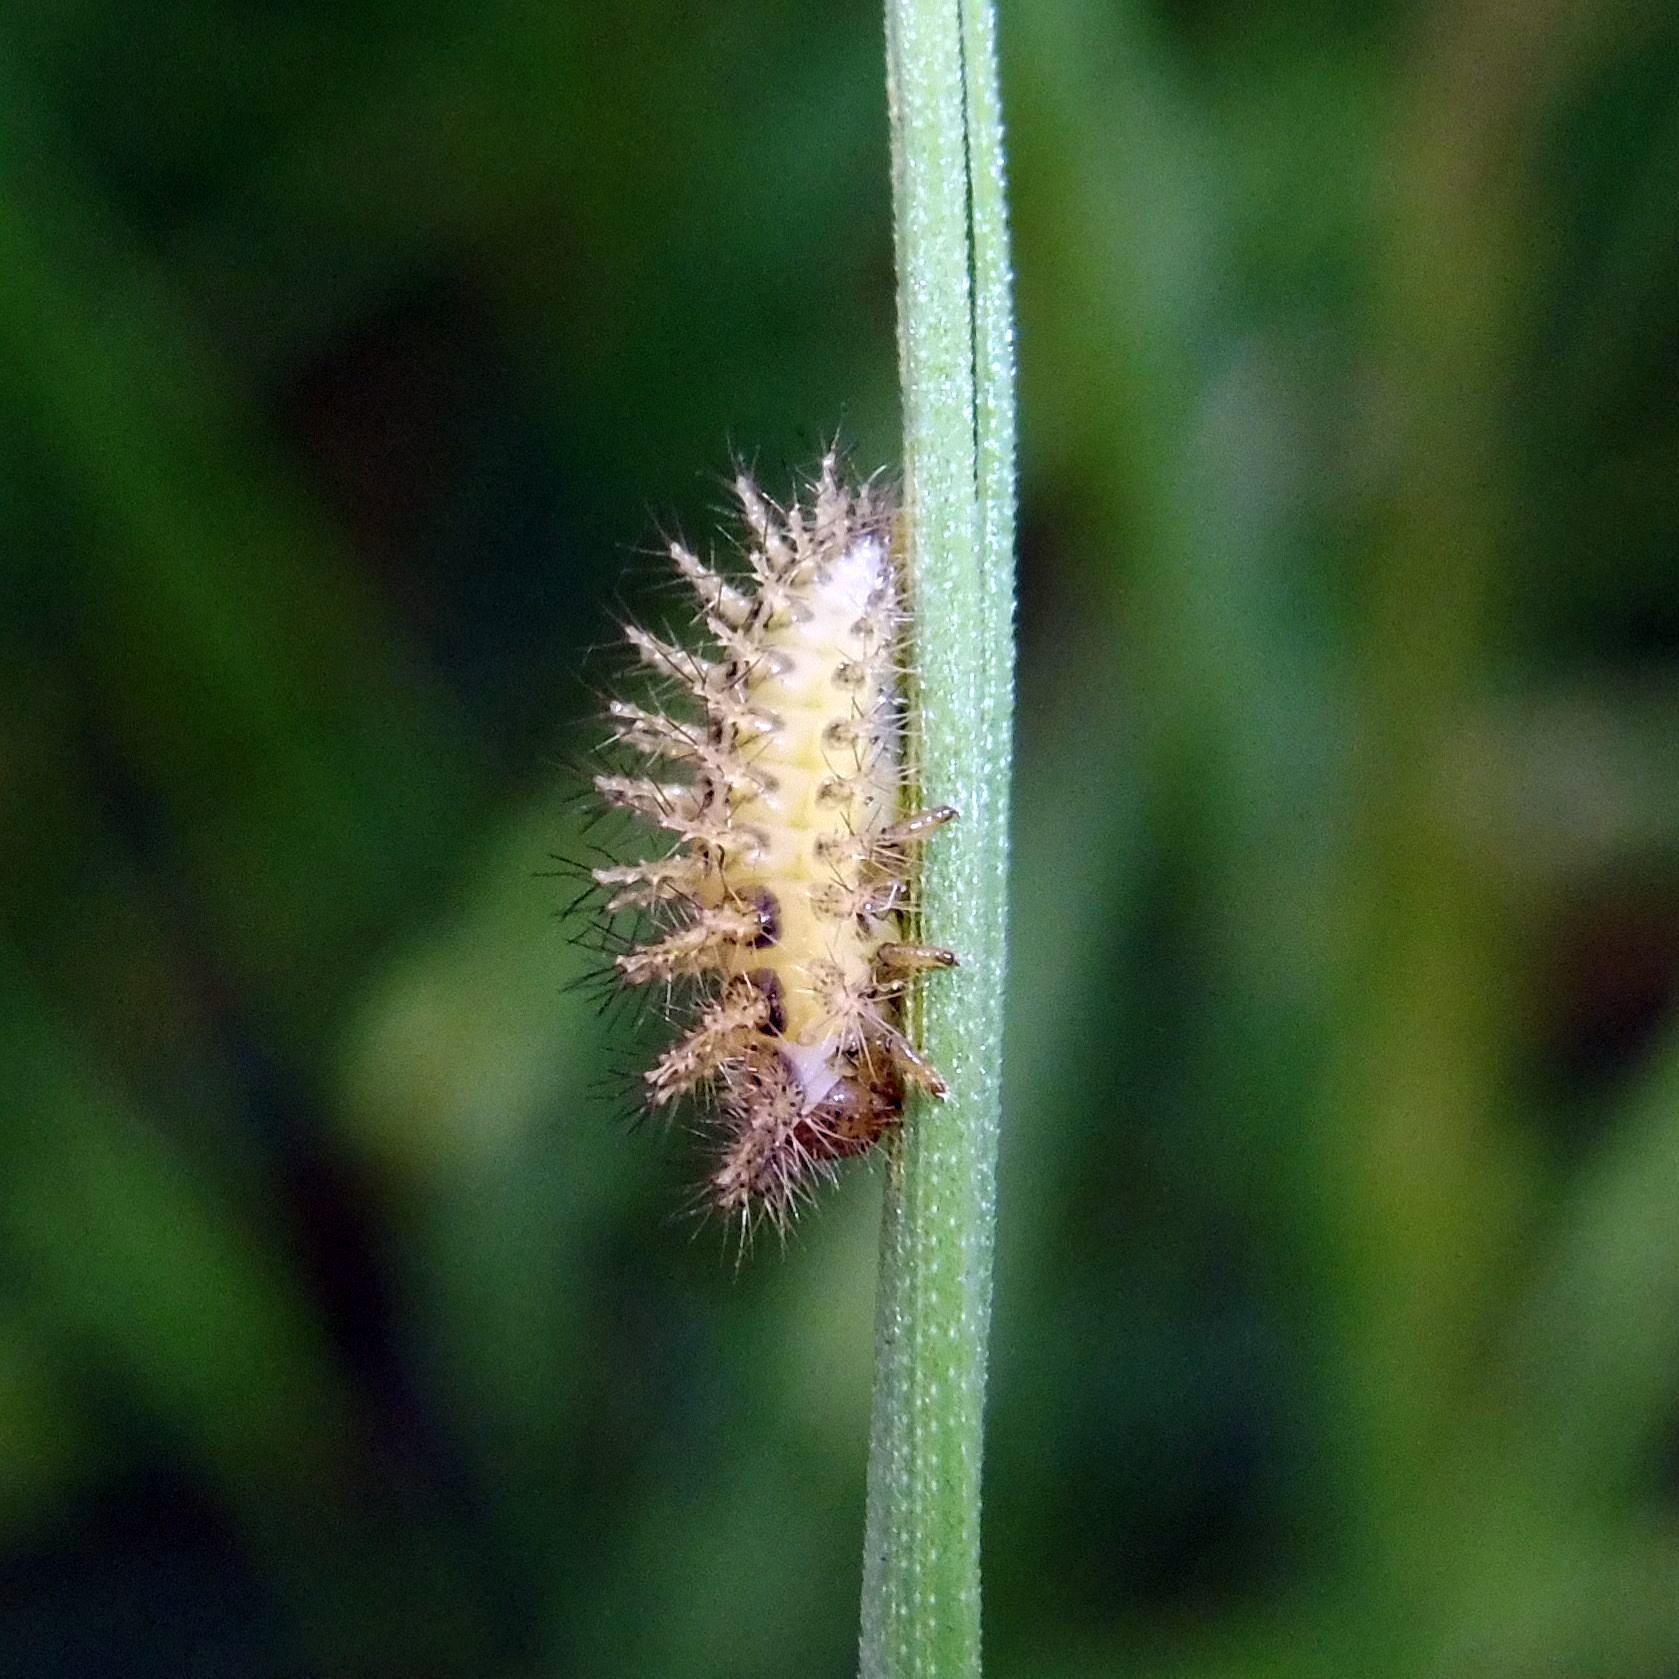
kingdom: Animalia
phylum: Arthropoda
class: Insecta
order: Coleoptera
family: Coccinellidae
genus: Subcoccinella
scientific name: Subcoccinella vigintiquatuorpunctata
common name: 24-spot ladybird
